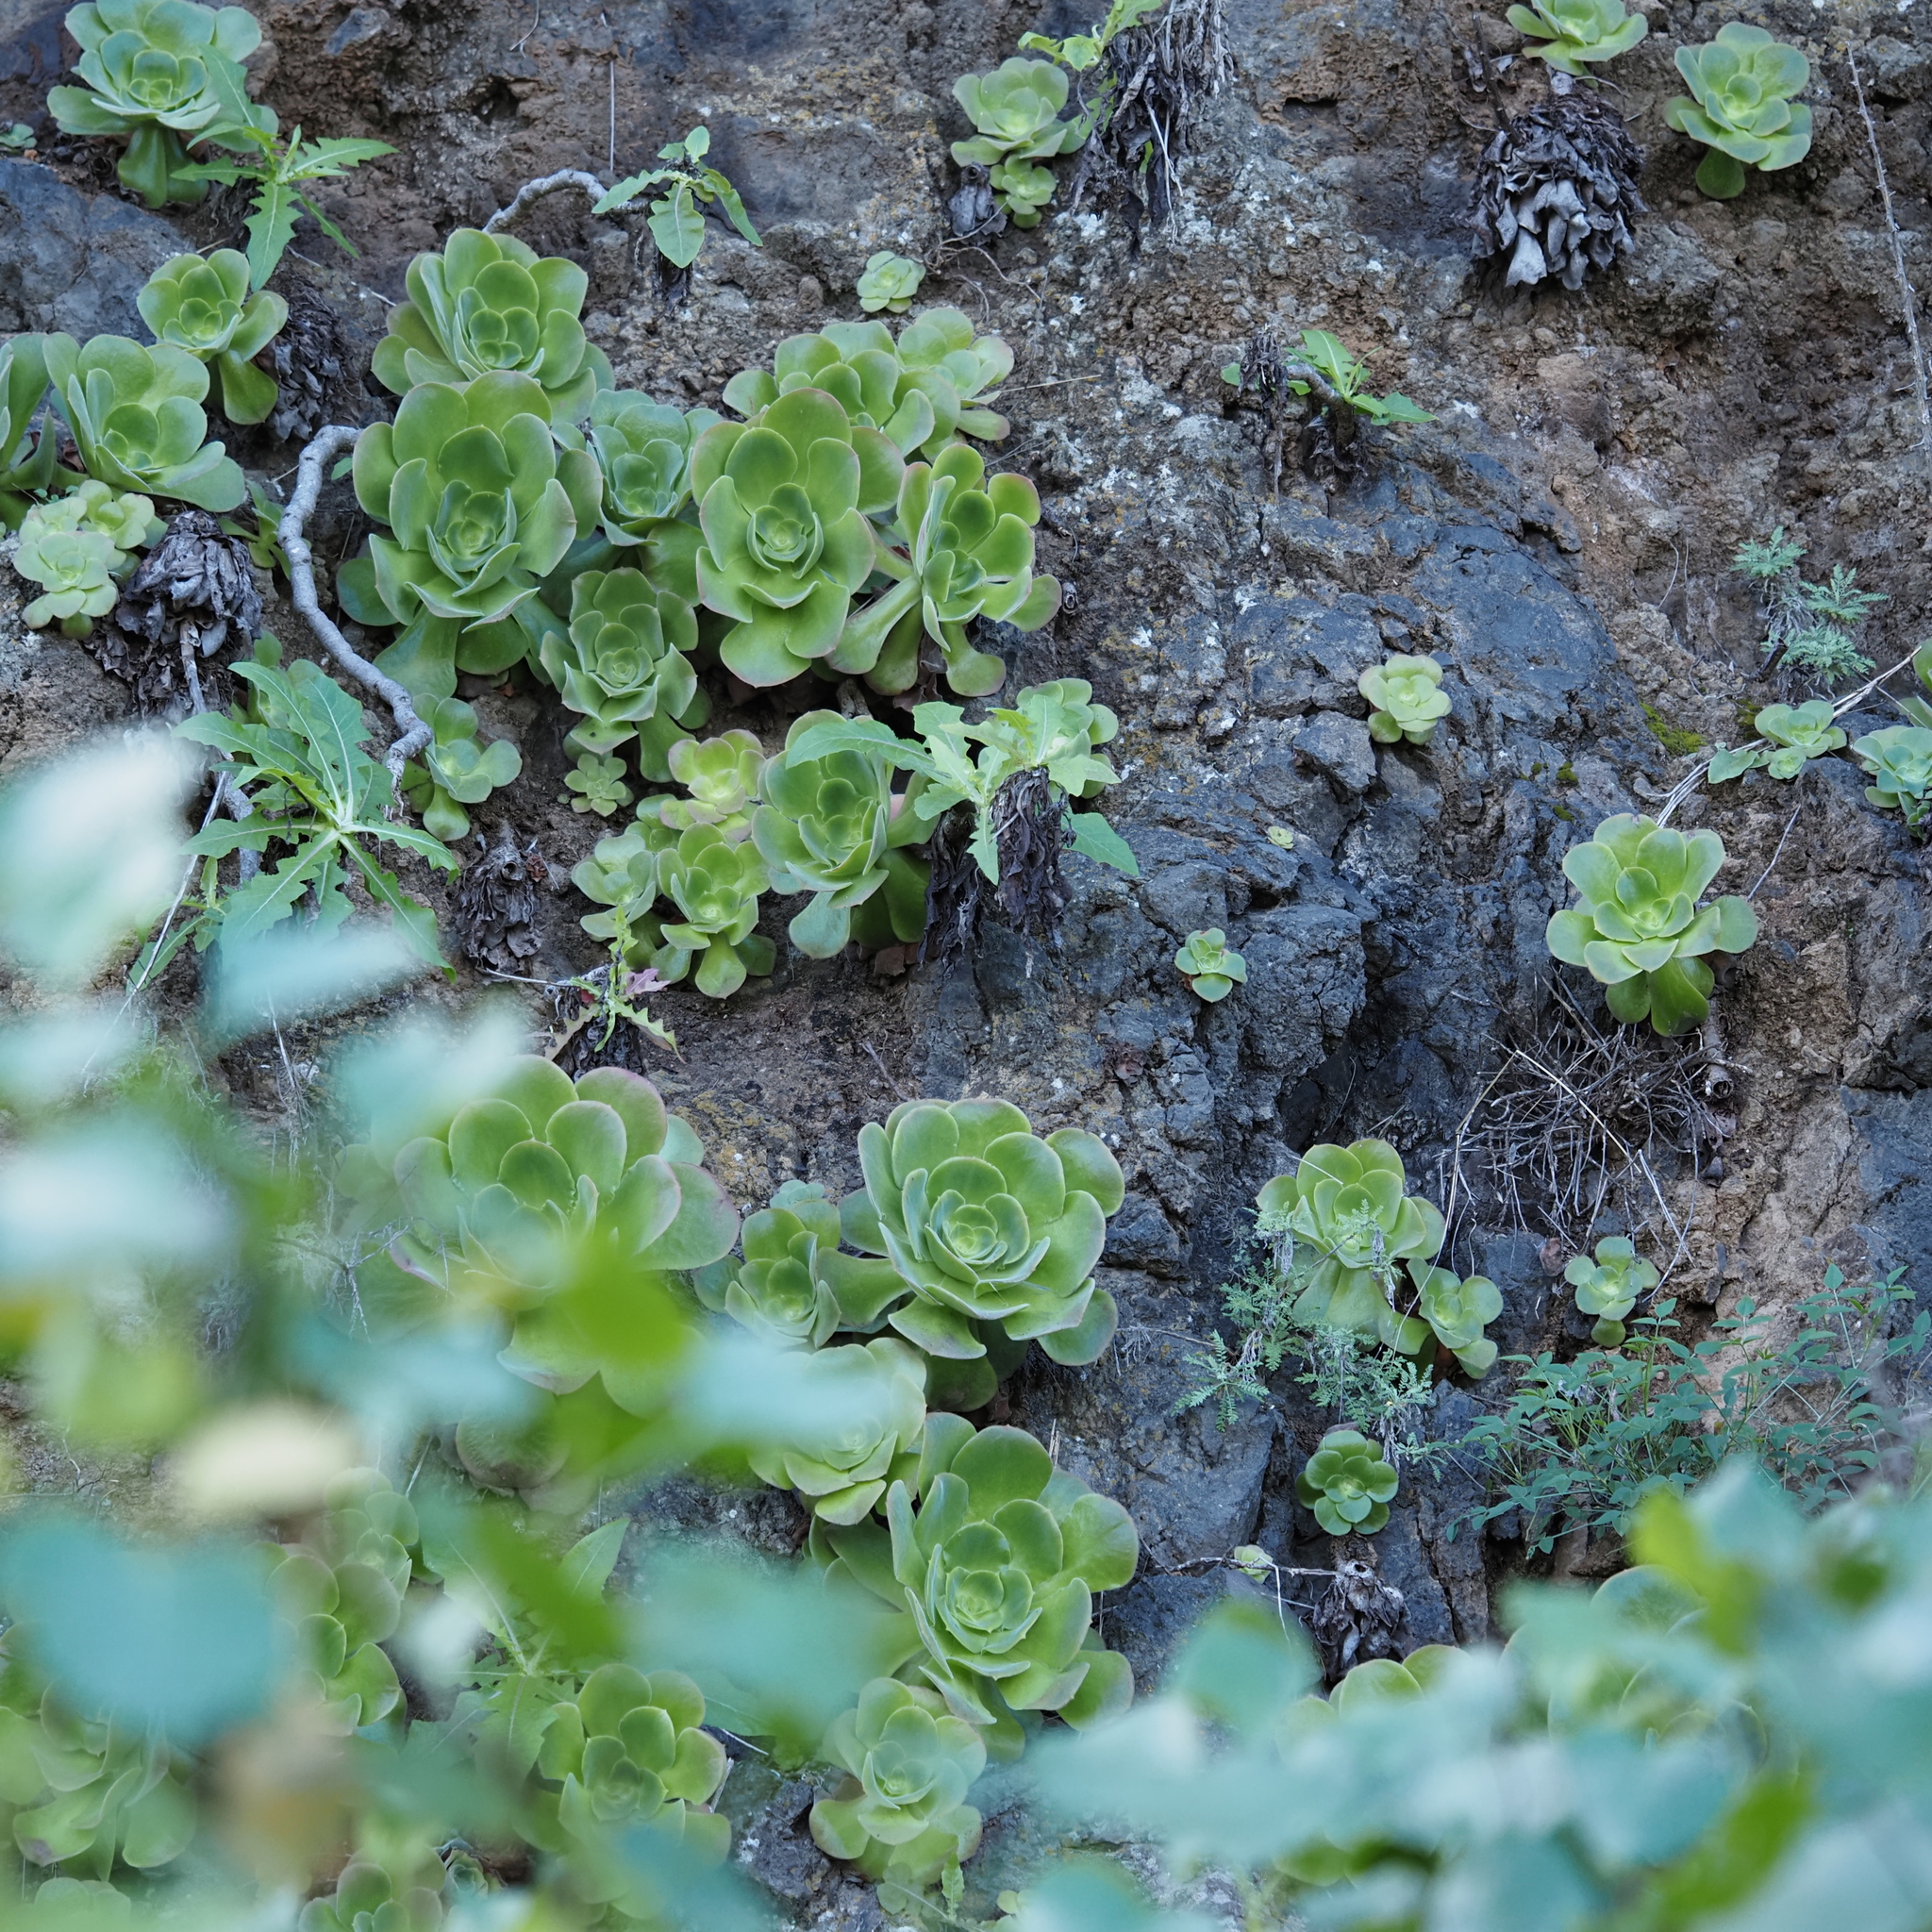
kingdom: Plantae
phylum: Tracheophyta
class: Magnoliopsida
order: Saxifragales
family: Crassulaceae
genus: Aeonium
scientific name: Aeonium canariense
